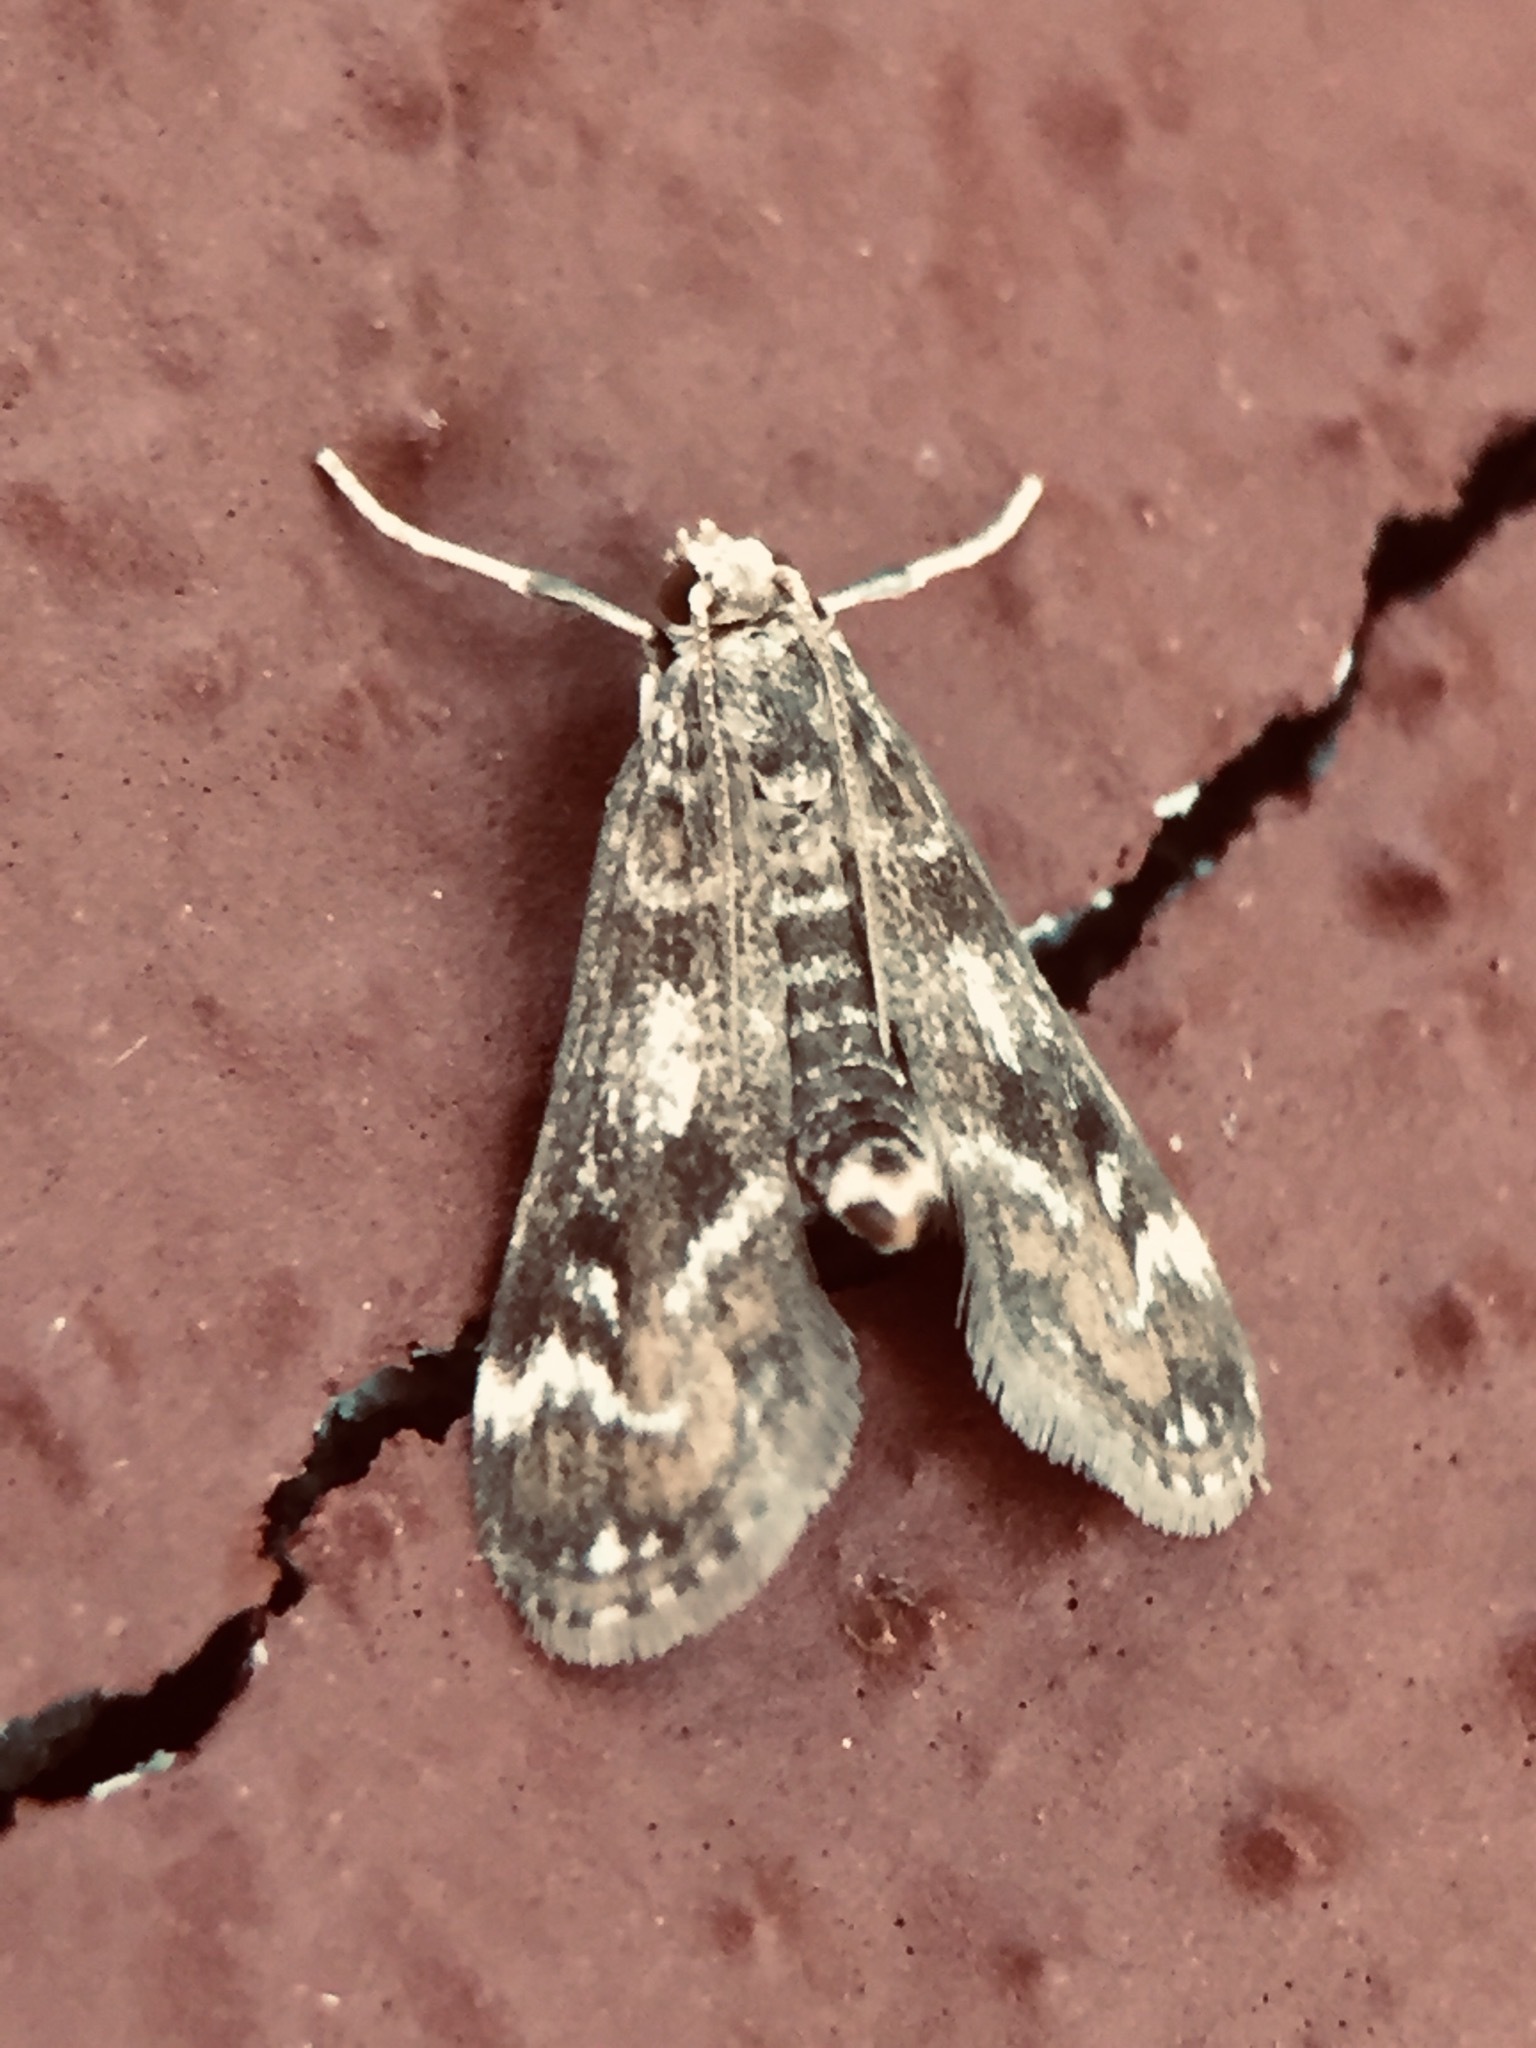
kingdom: Animalia
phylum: Arthropoda
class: Insecta
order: Lepidoptera
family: Crambidae
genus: Hygraula
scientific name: Hygraula nitens
